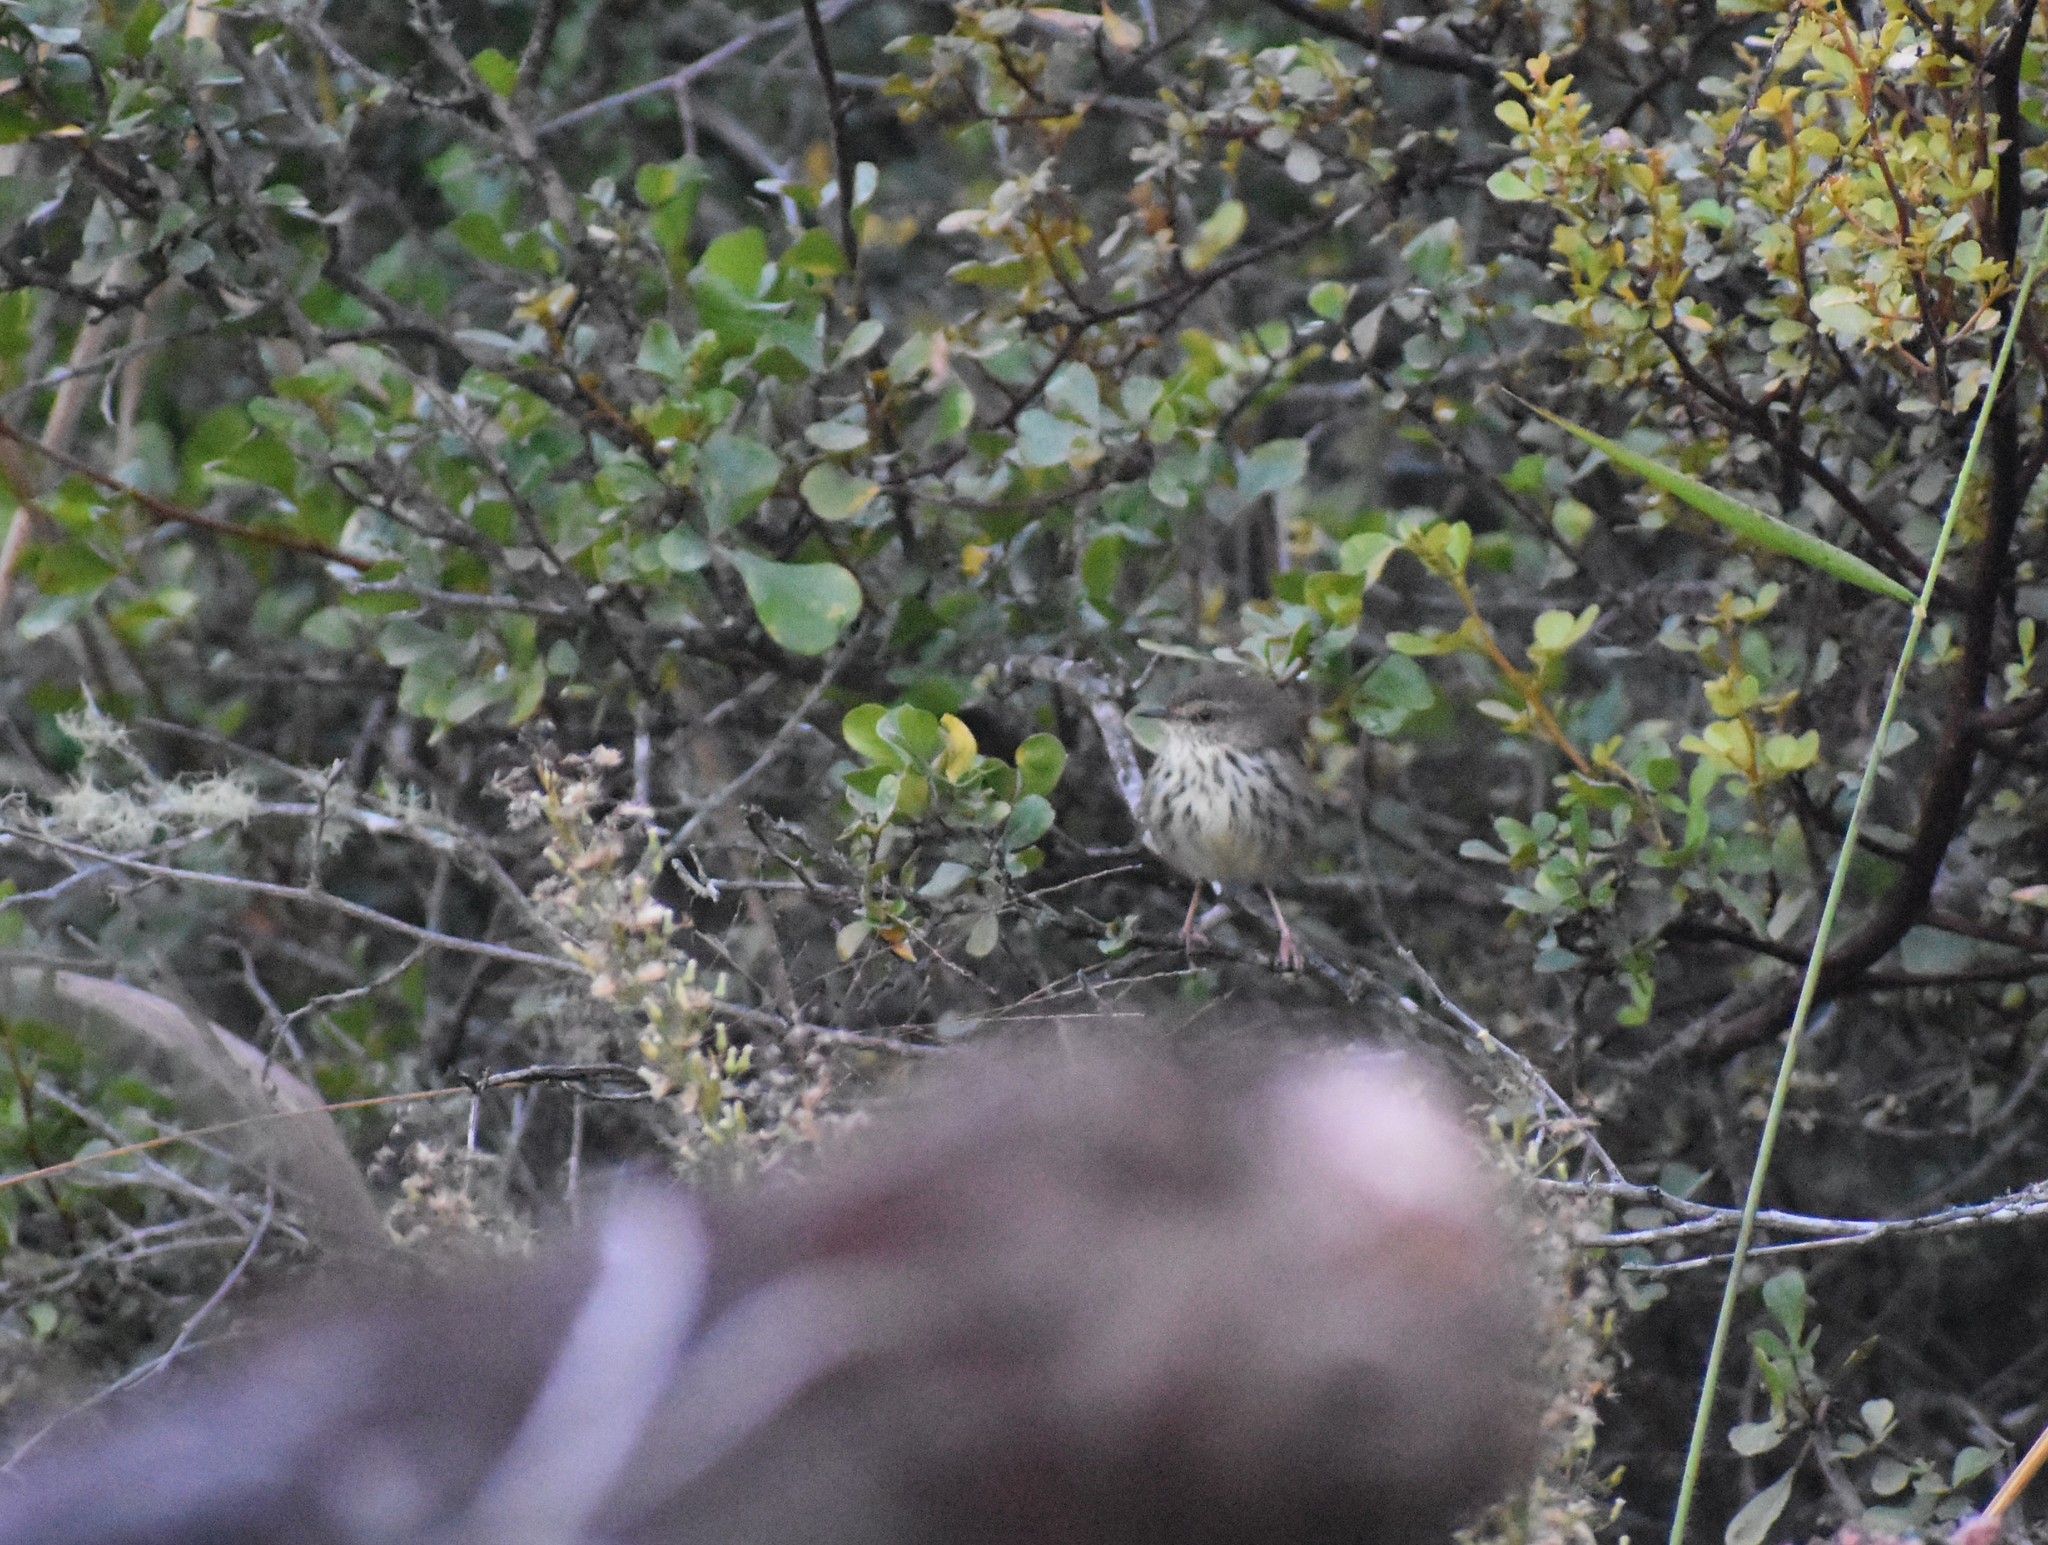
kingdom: Animalia
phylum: Chordata
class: Aves
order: Passeriformes
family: Cisticolidae
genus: Prinia
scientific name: Prinia maculosa
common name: Karoo prinia
